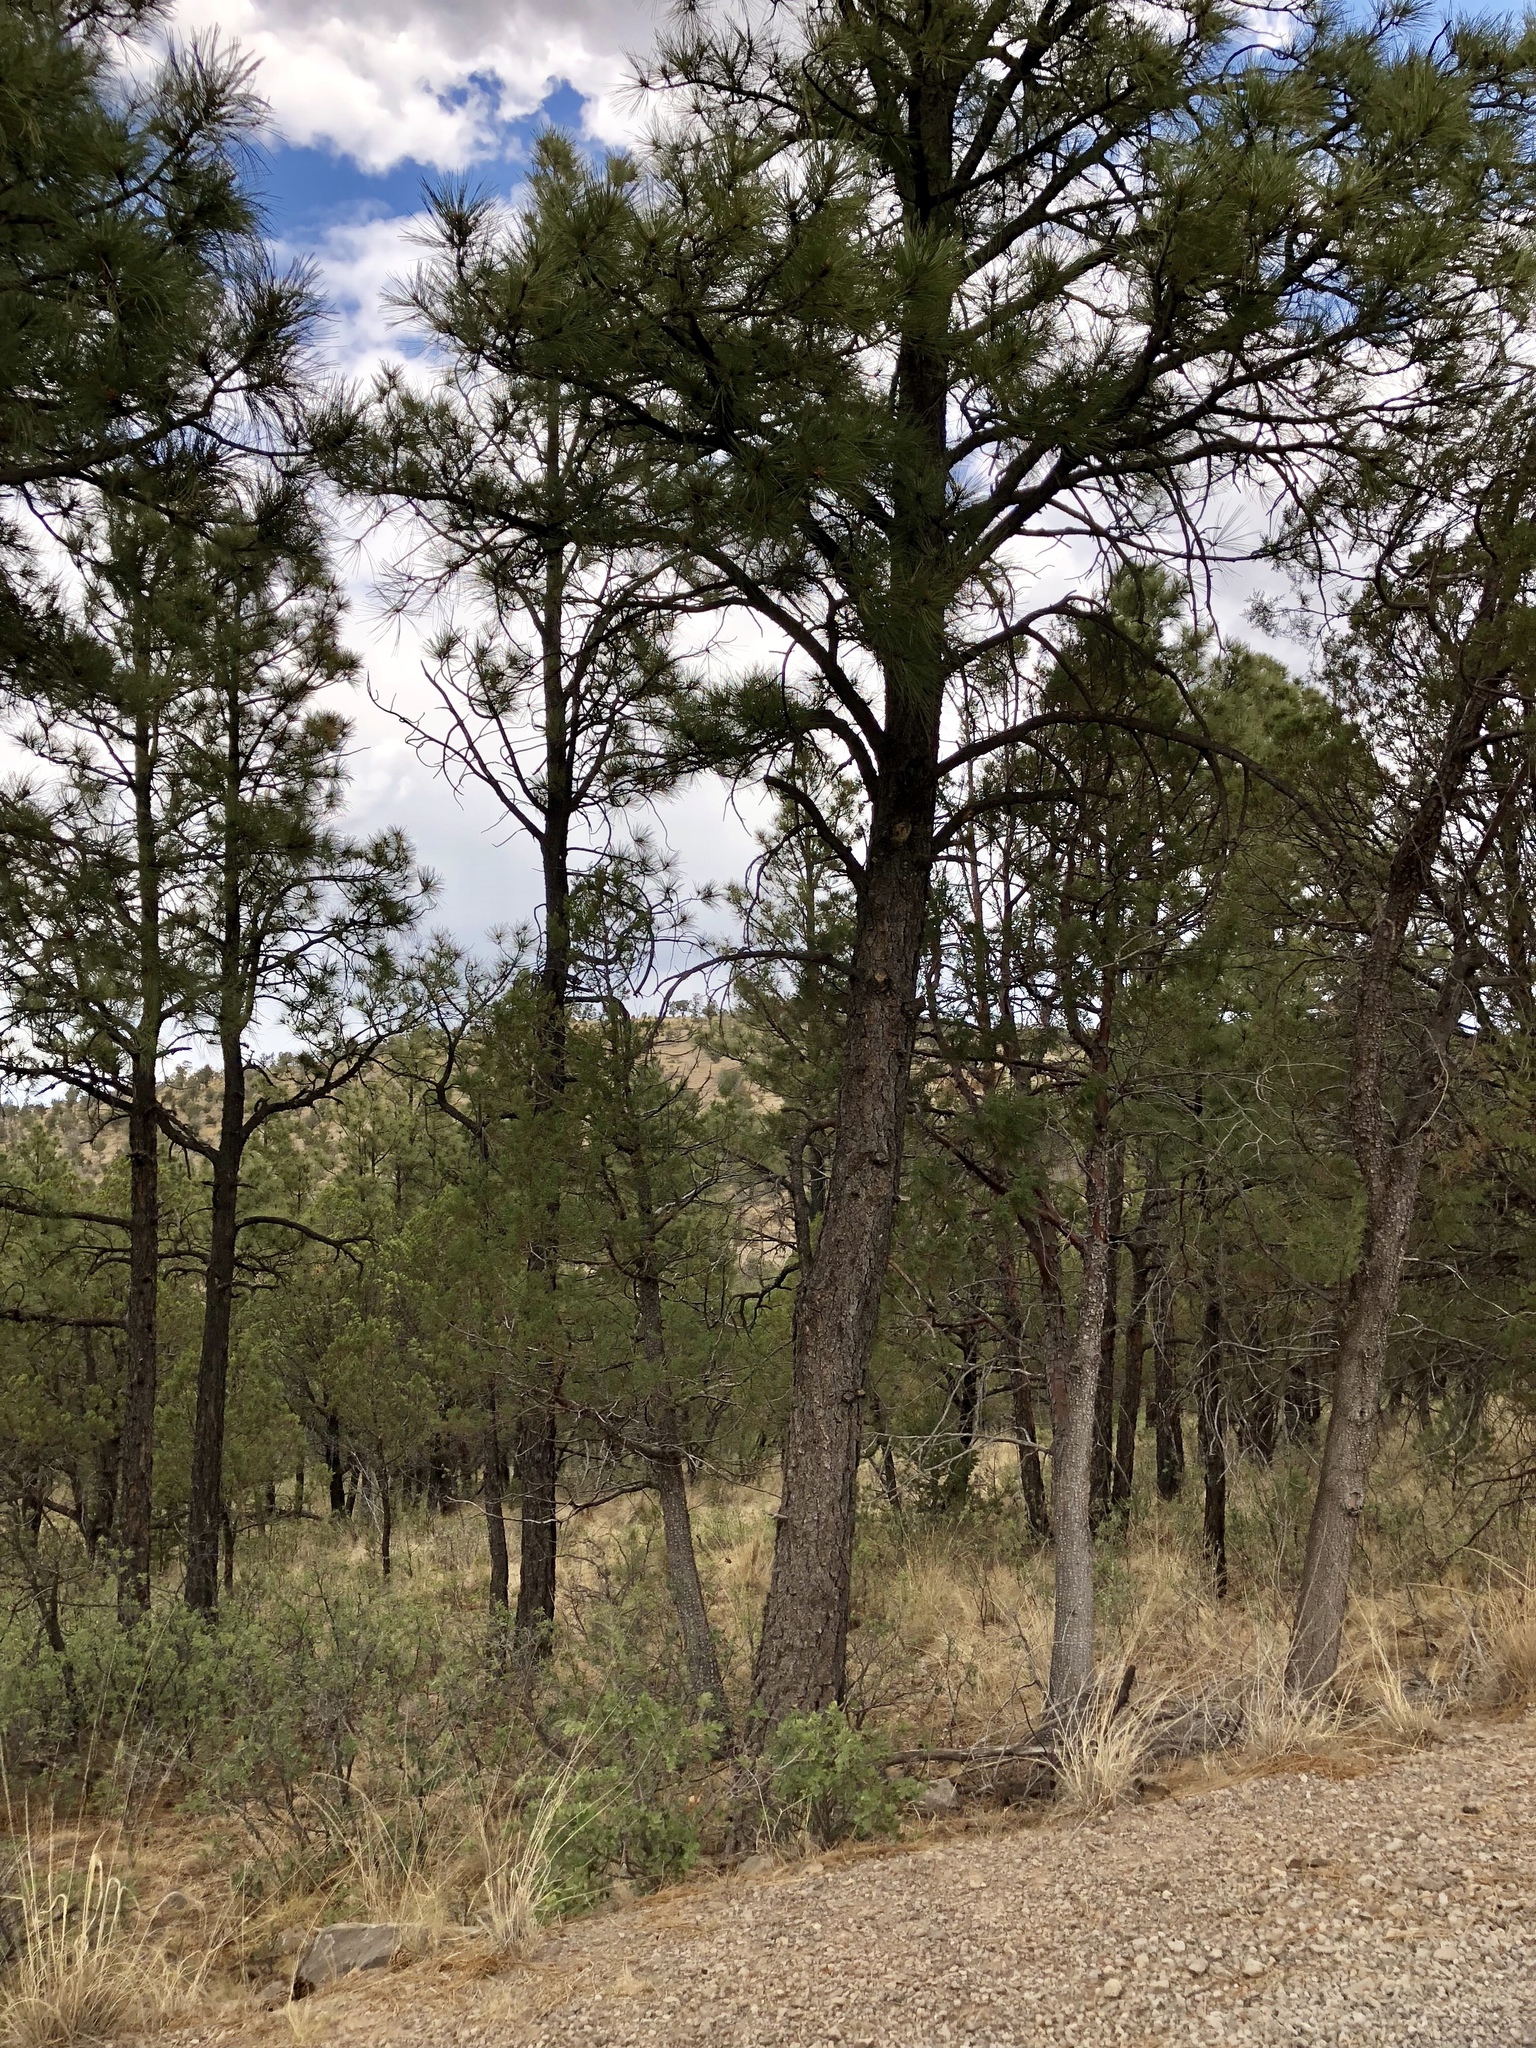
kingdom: Plantae
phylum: Tracheophyta
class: Pinopsida
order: Pinales
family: Pinaceae
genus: Pinus
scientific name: Pinus ponderosa
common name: Western yellow-pine
